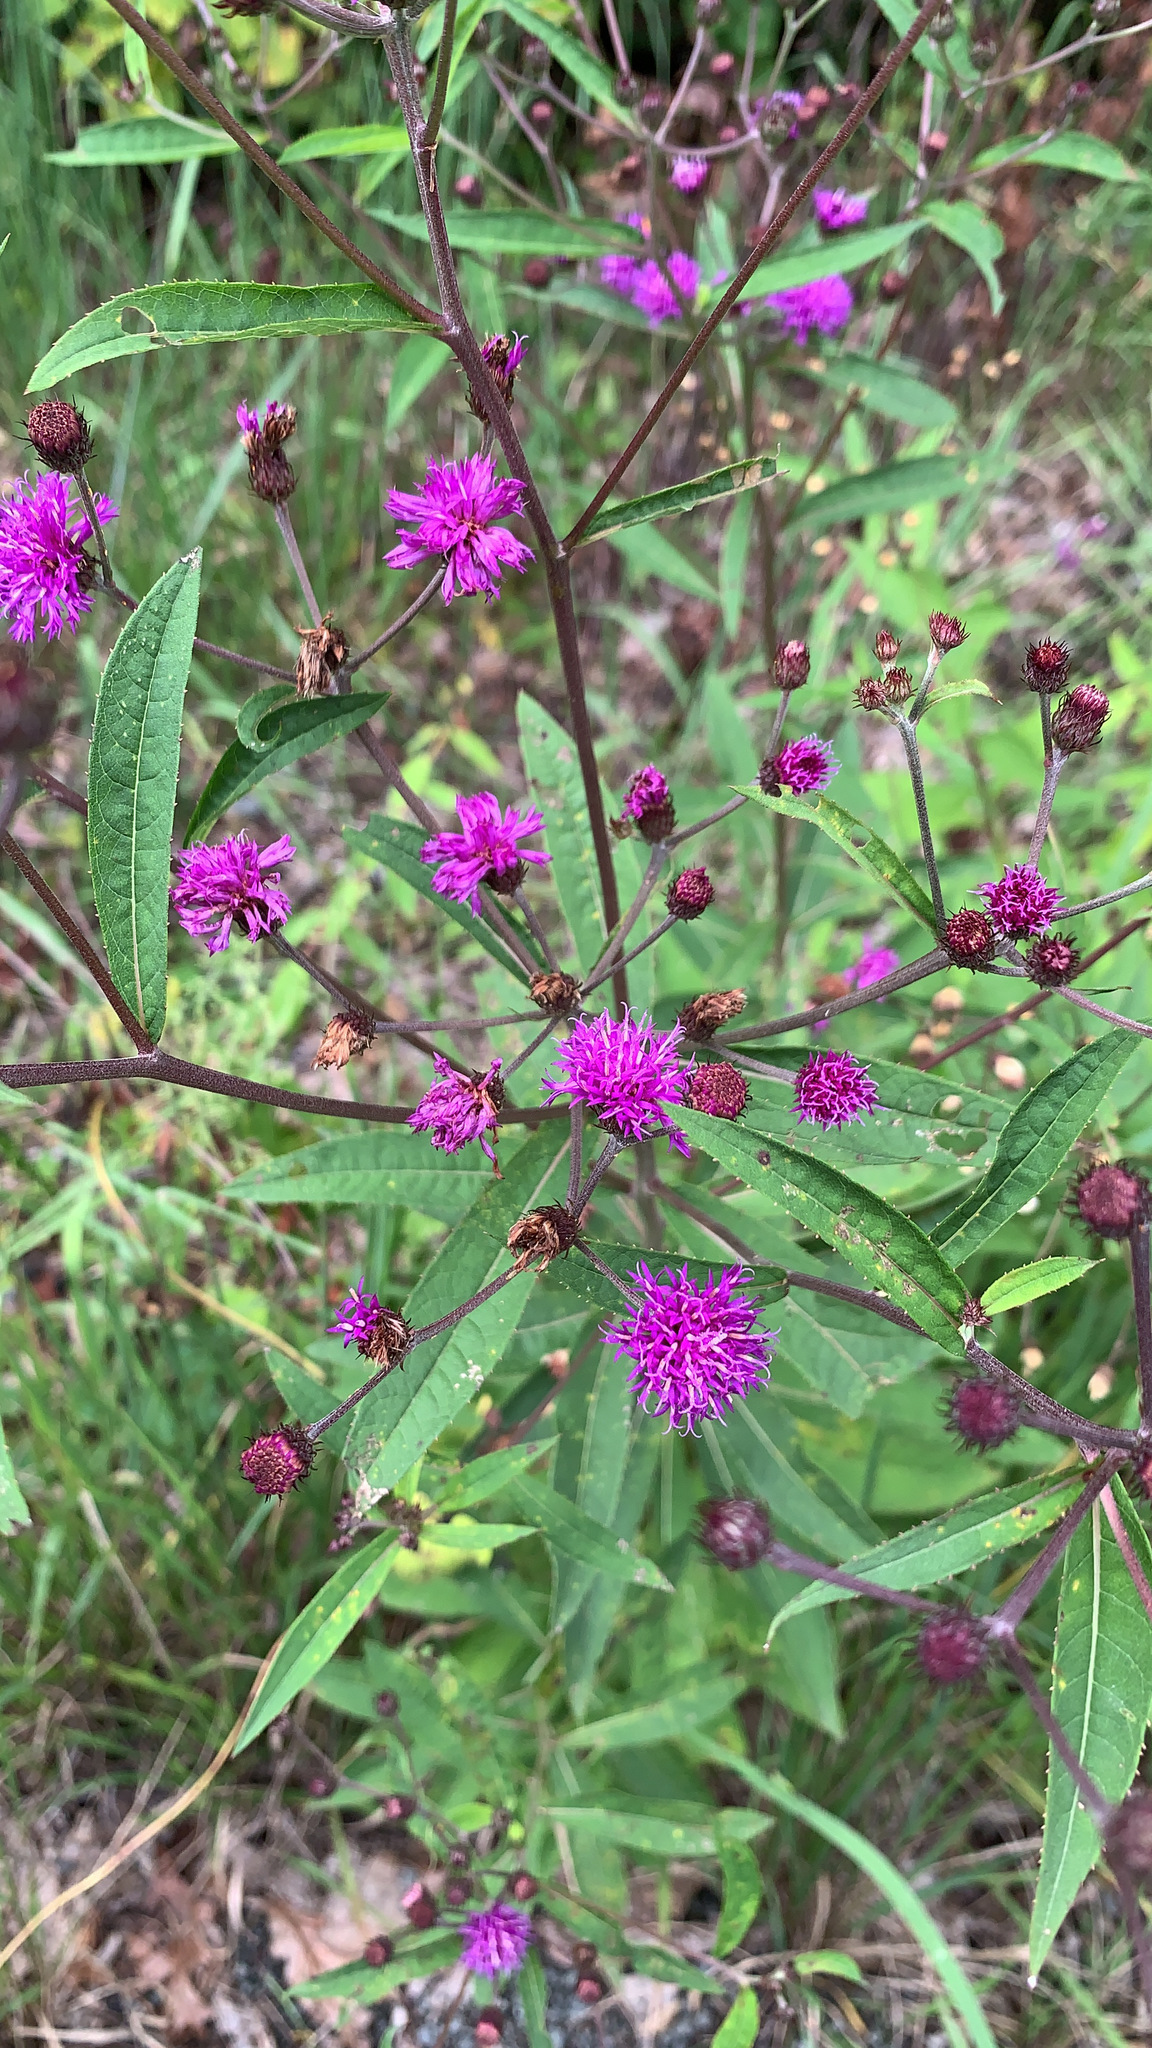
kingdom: Plantae
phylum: Tracheophyta
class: Magnoliopsida
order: Asterales
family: Asteraceae
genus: Vernonia
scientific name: Vernonia noveboracensis
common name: New york ironweed
